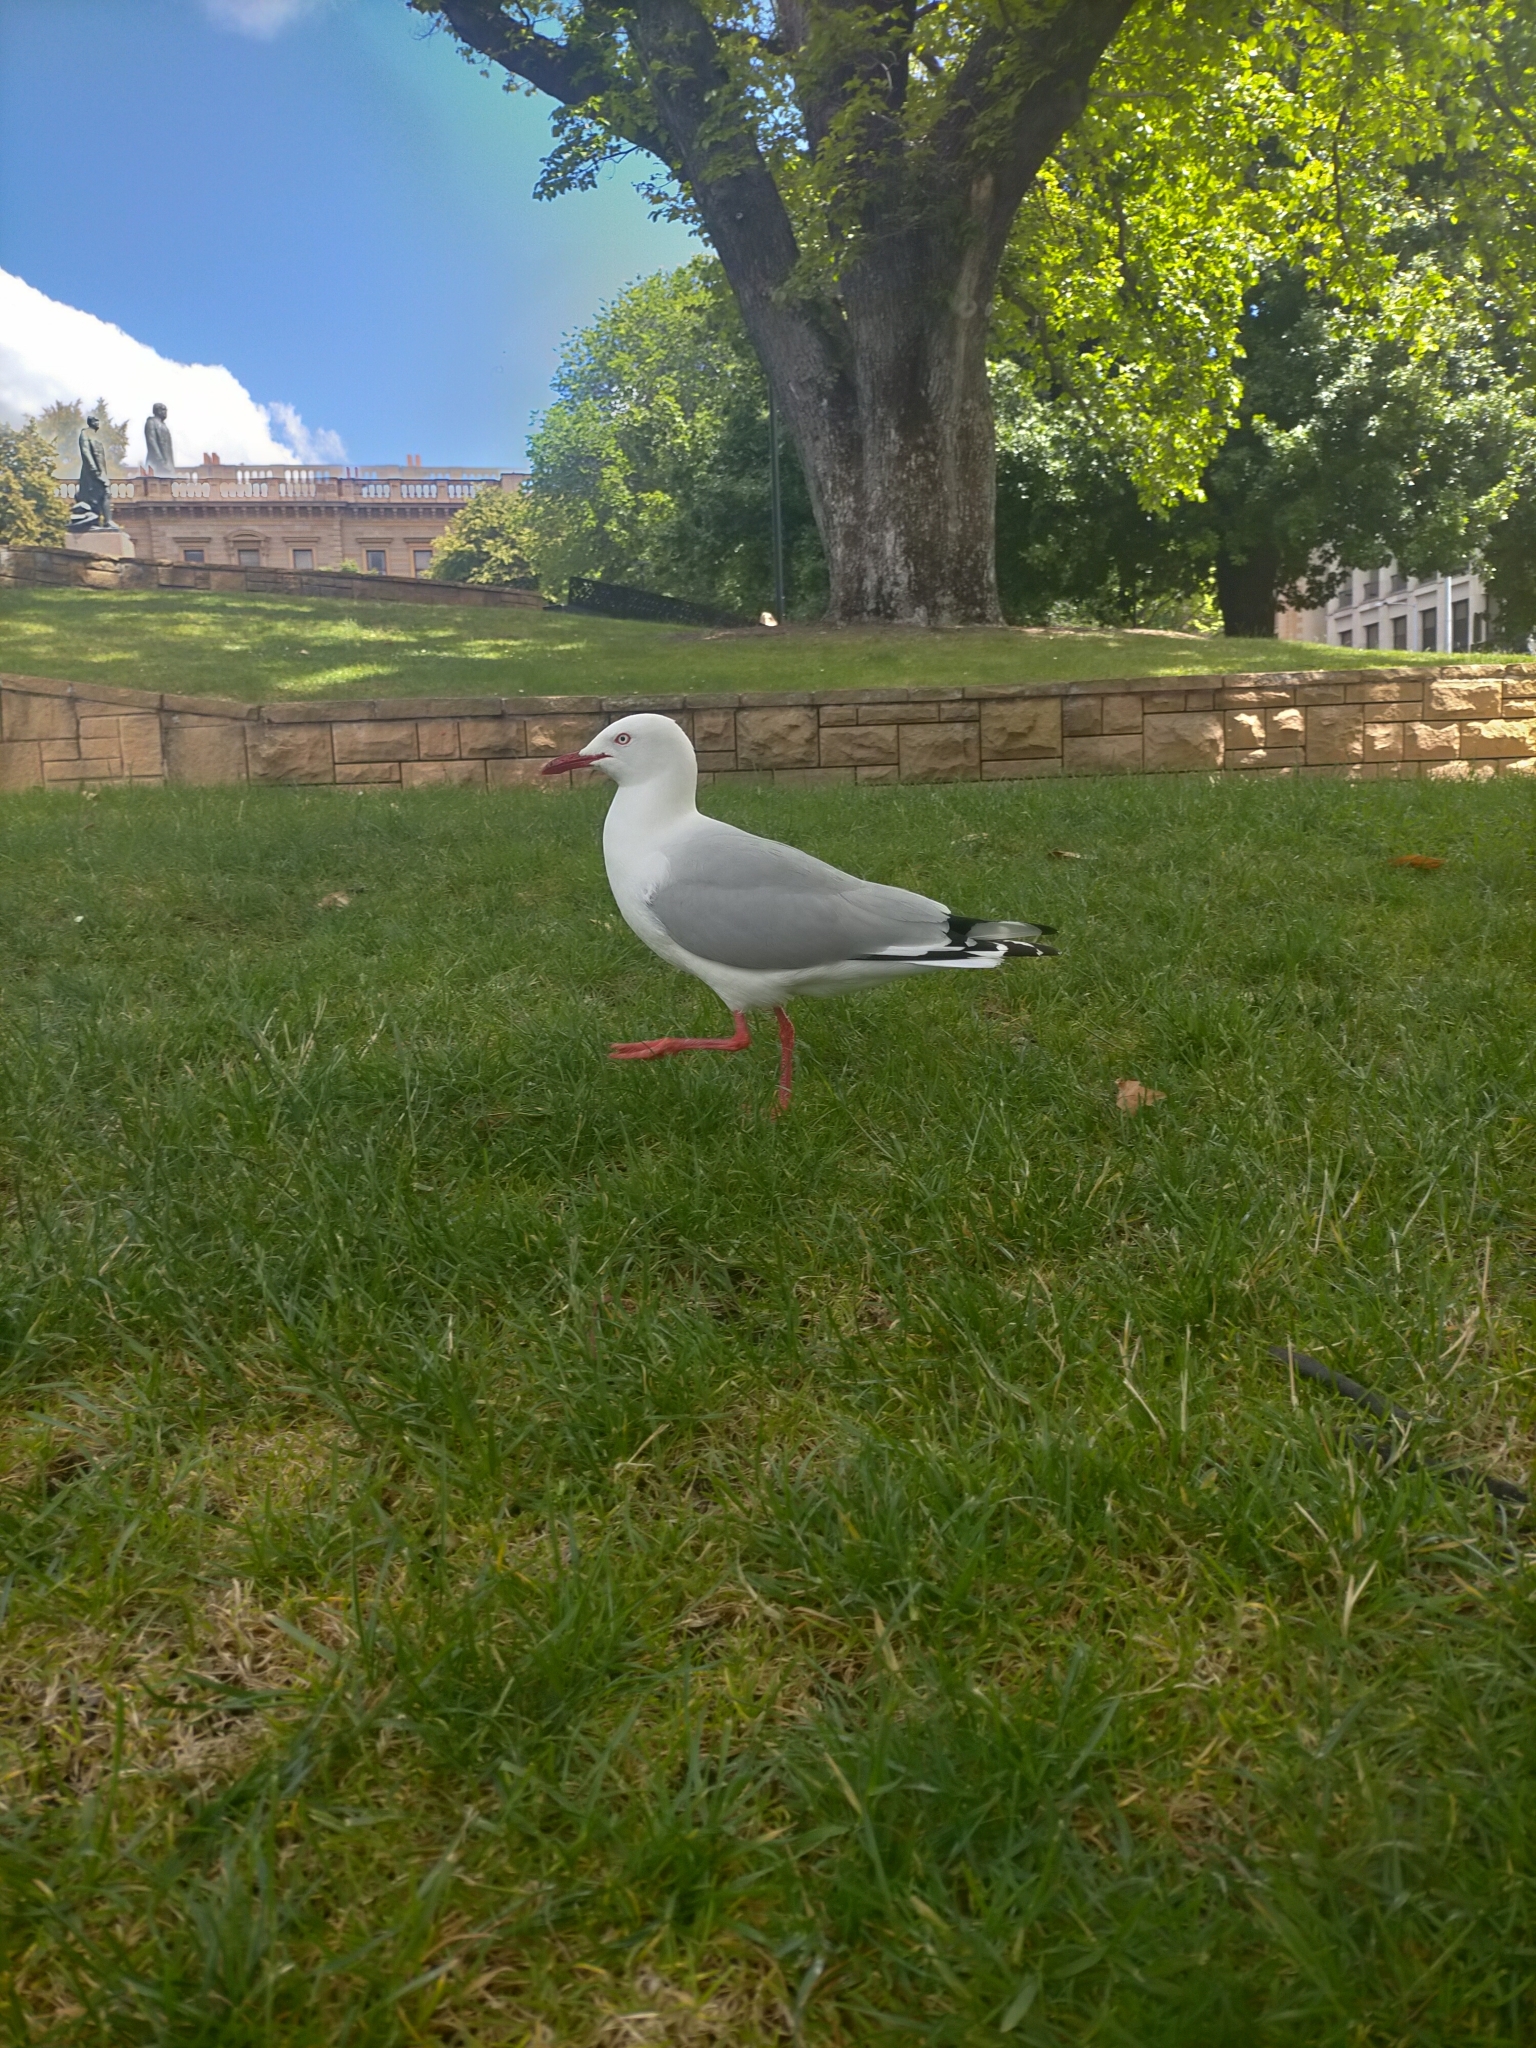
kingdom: Animalia
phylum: Chordata
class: Aves
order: Charadriiformes
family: Laridae
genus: Chroicocephalus
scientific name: Chroicocephalus novaehollandiae
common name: Silver gull
